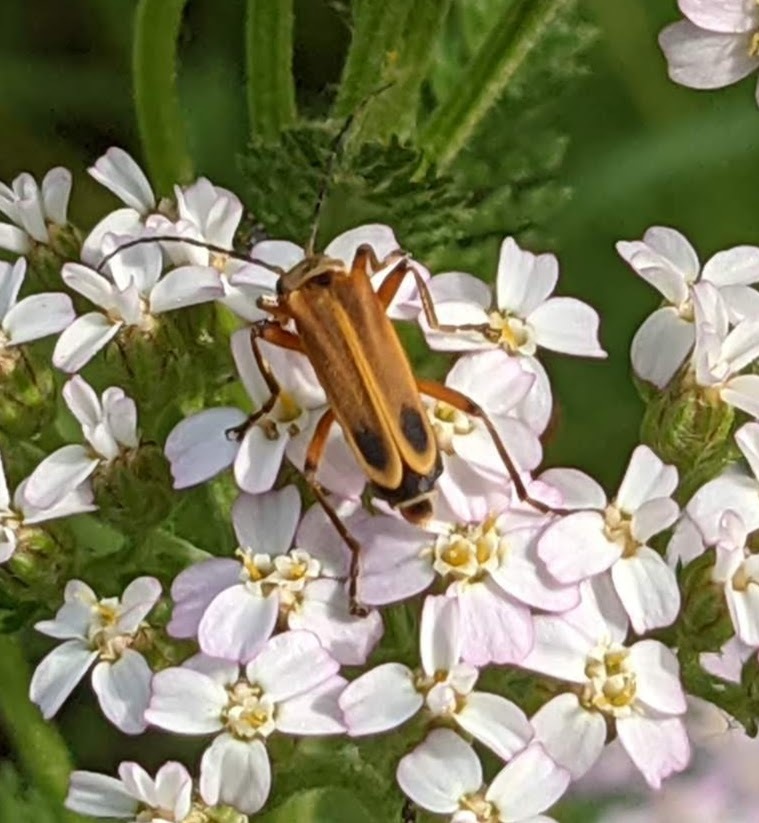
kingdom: Animalia
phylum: Arthropoda
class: Insecta
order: Coleoptera
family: Cantharidae
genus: Chauliognathus
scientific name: Chauliognathus marginatus
